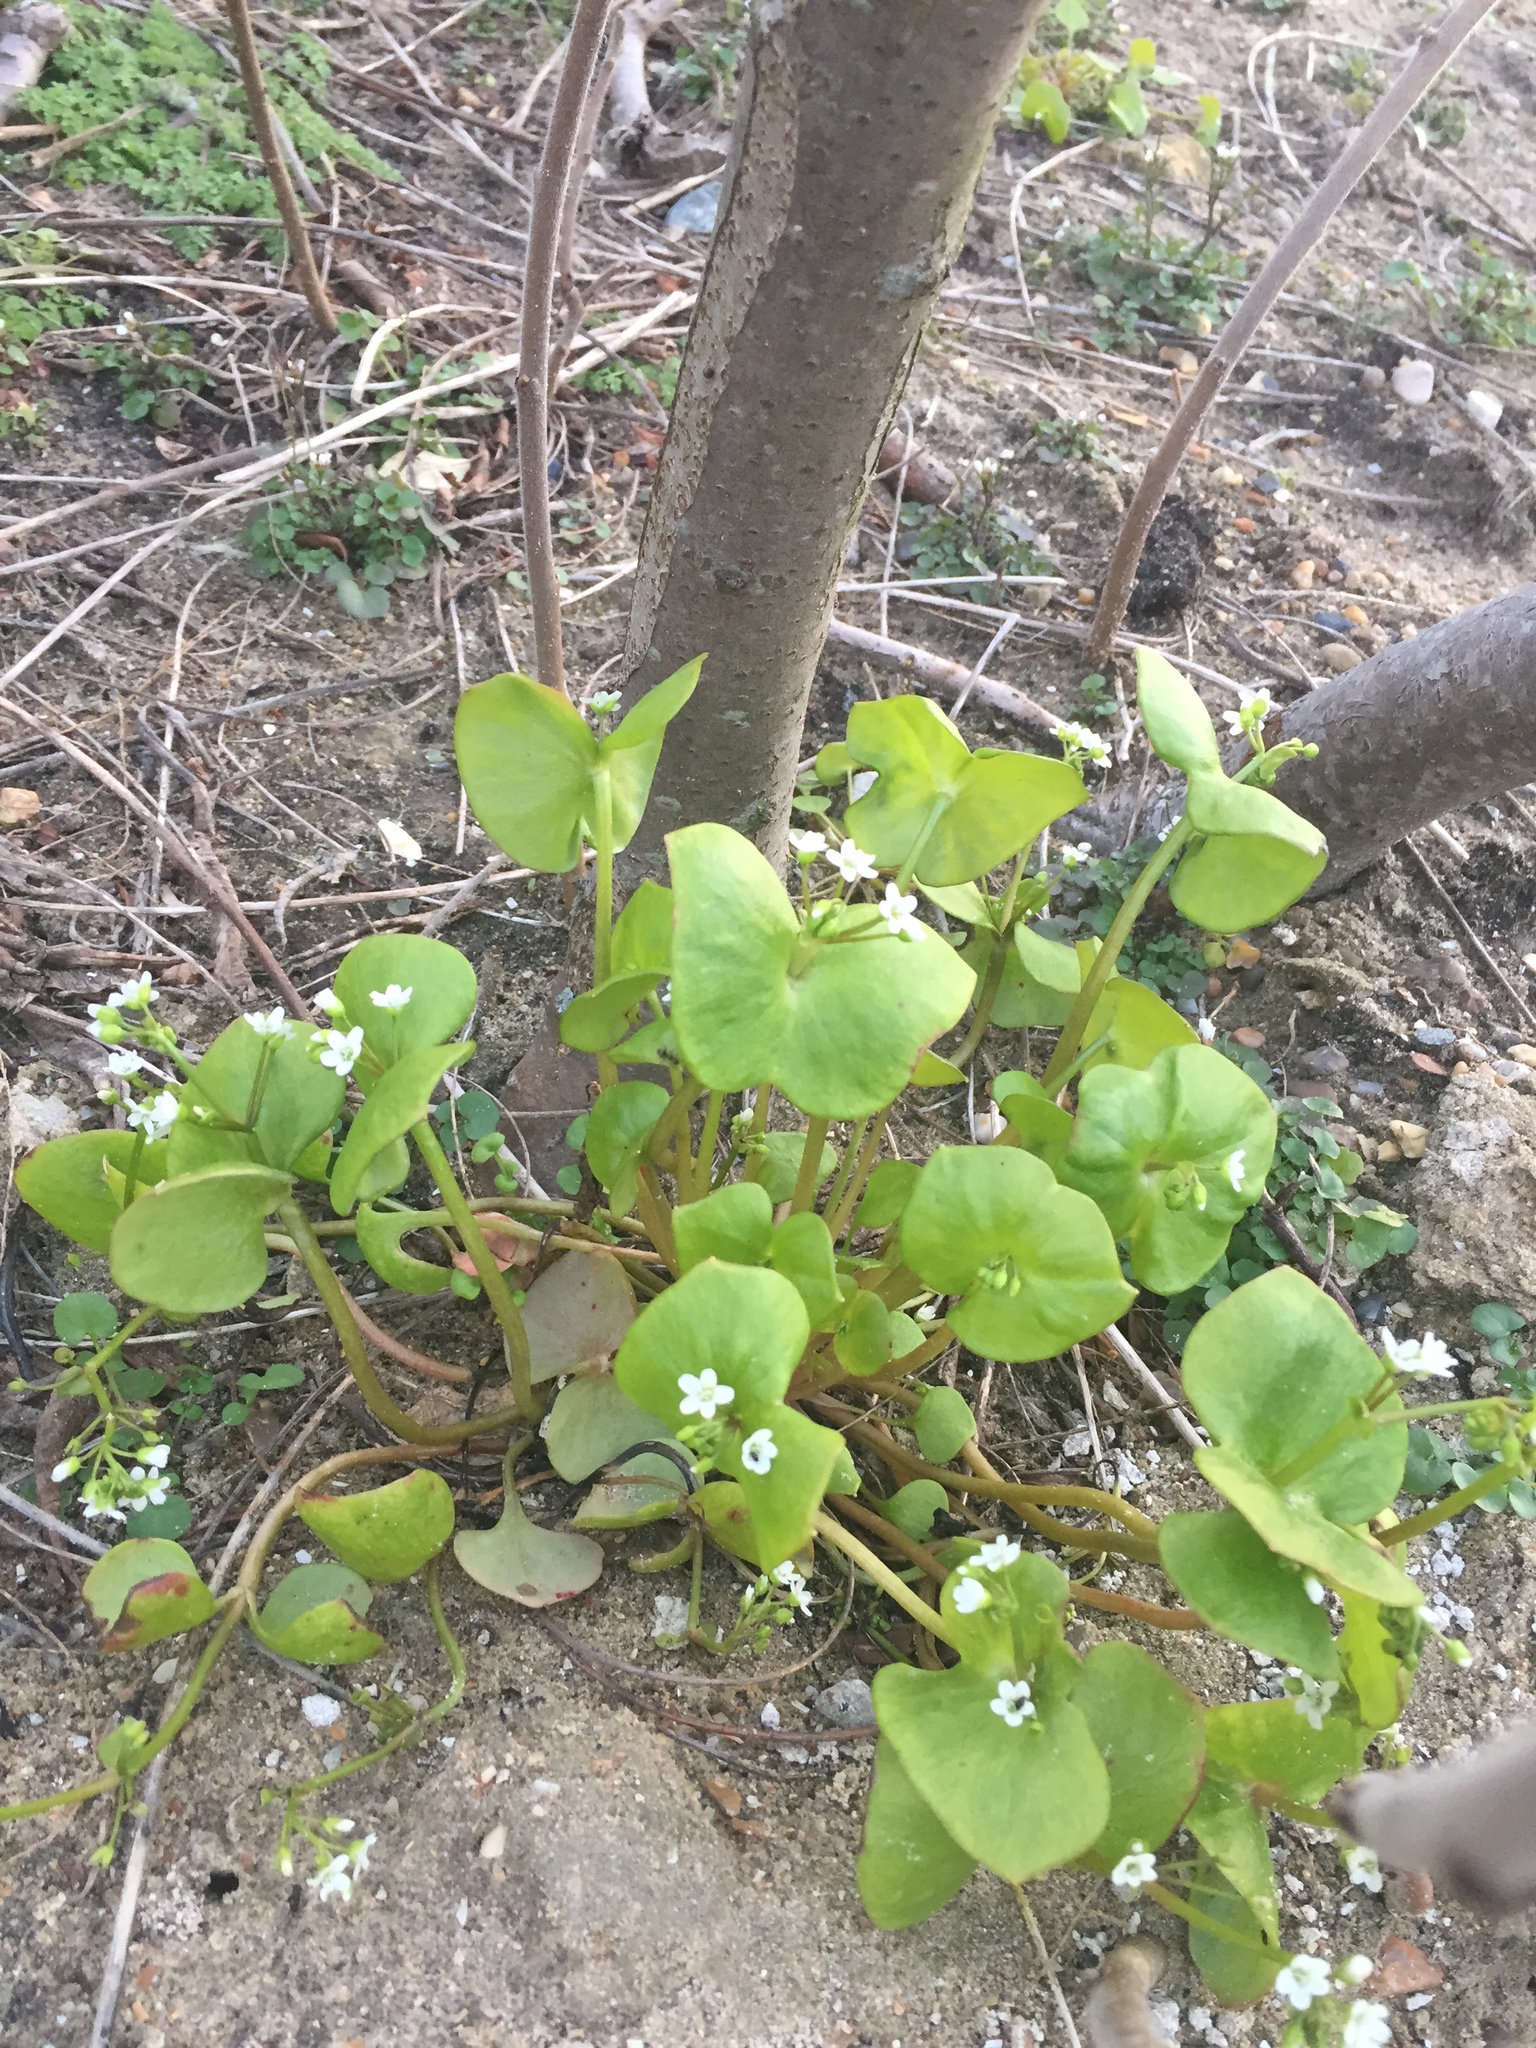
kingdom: Plantae
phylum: Tracheophyta
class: Magnoliopsida
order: Caryophyllales
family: Montiaceae
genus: Claytonia
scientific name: Claytonia perfoliata
